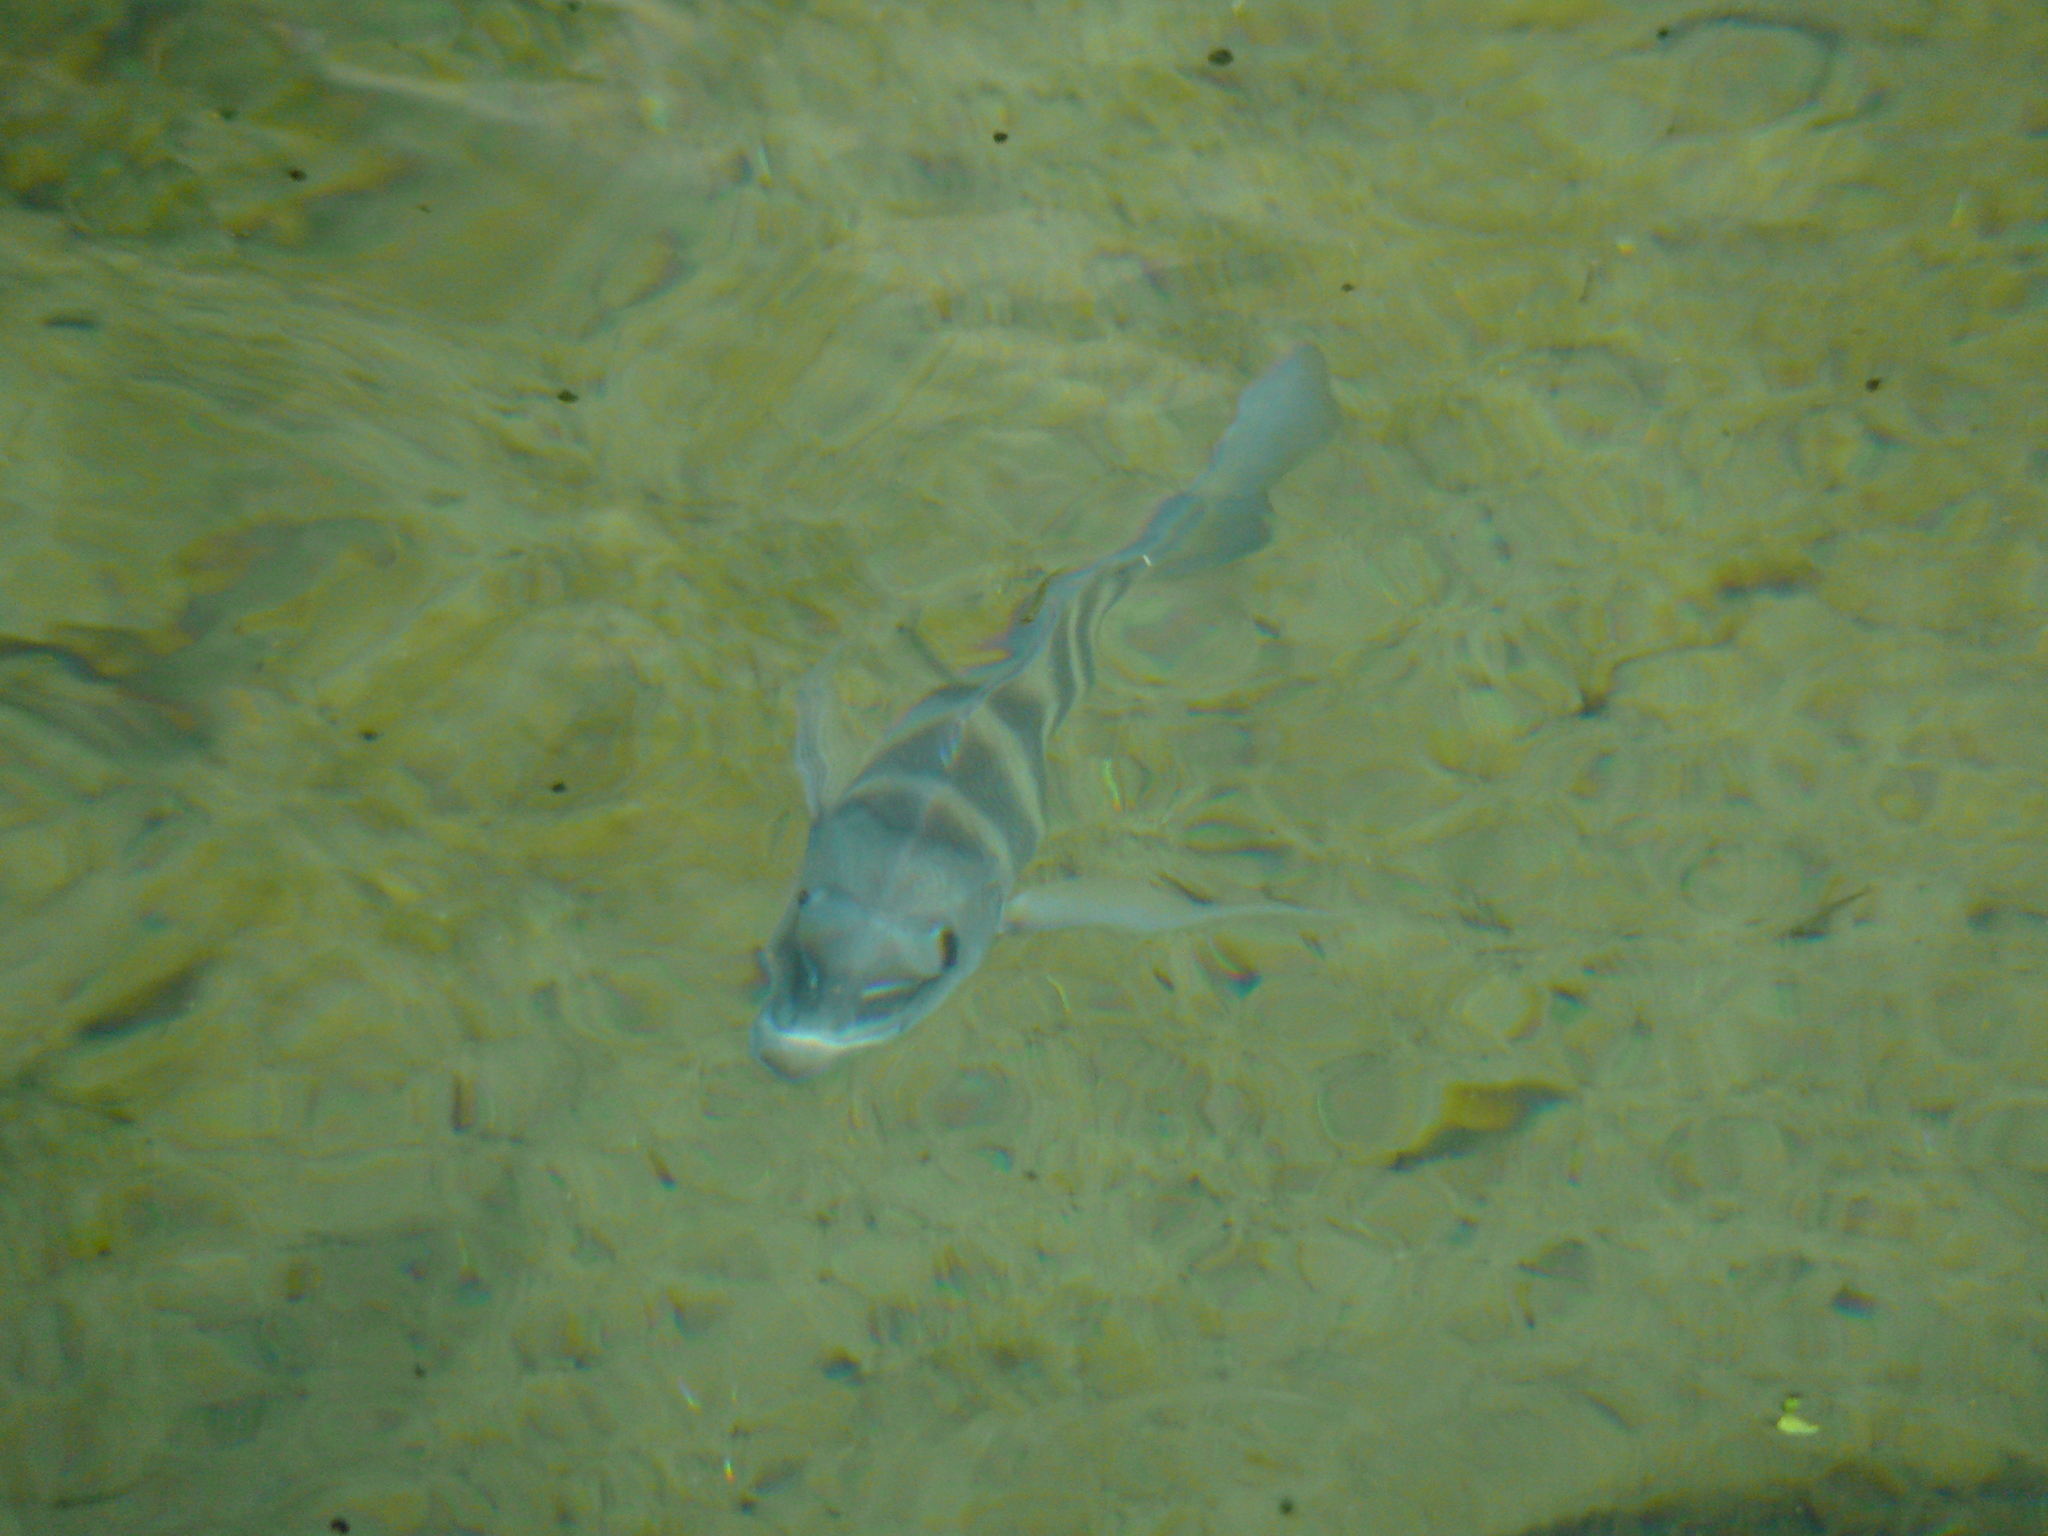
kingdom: Animalia
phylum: Chordata
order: Perciformes
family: Sparidae
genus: Archosargus
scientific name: Archosargus probatocephalus
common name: Sheepshead
